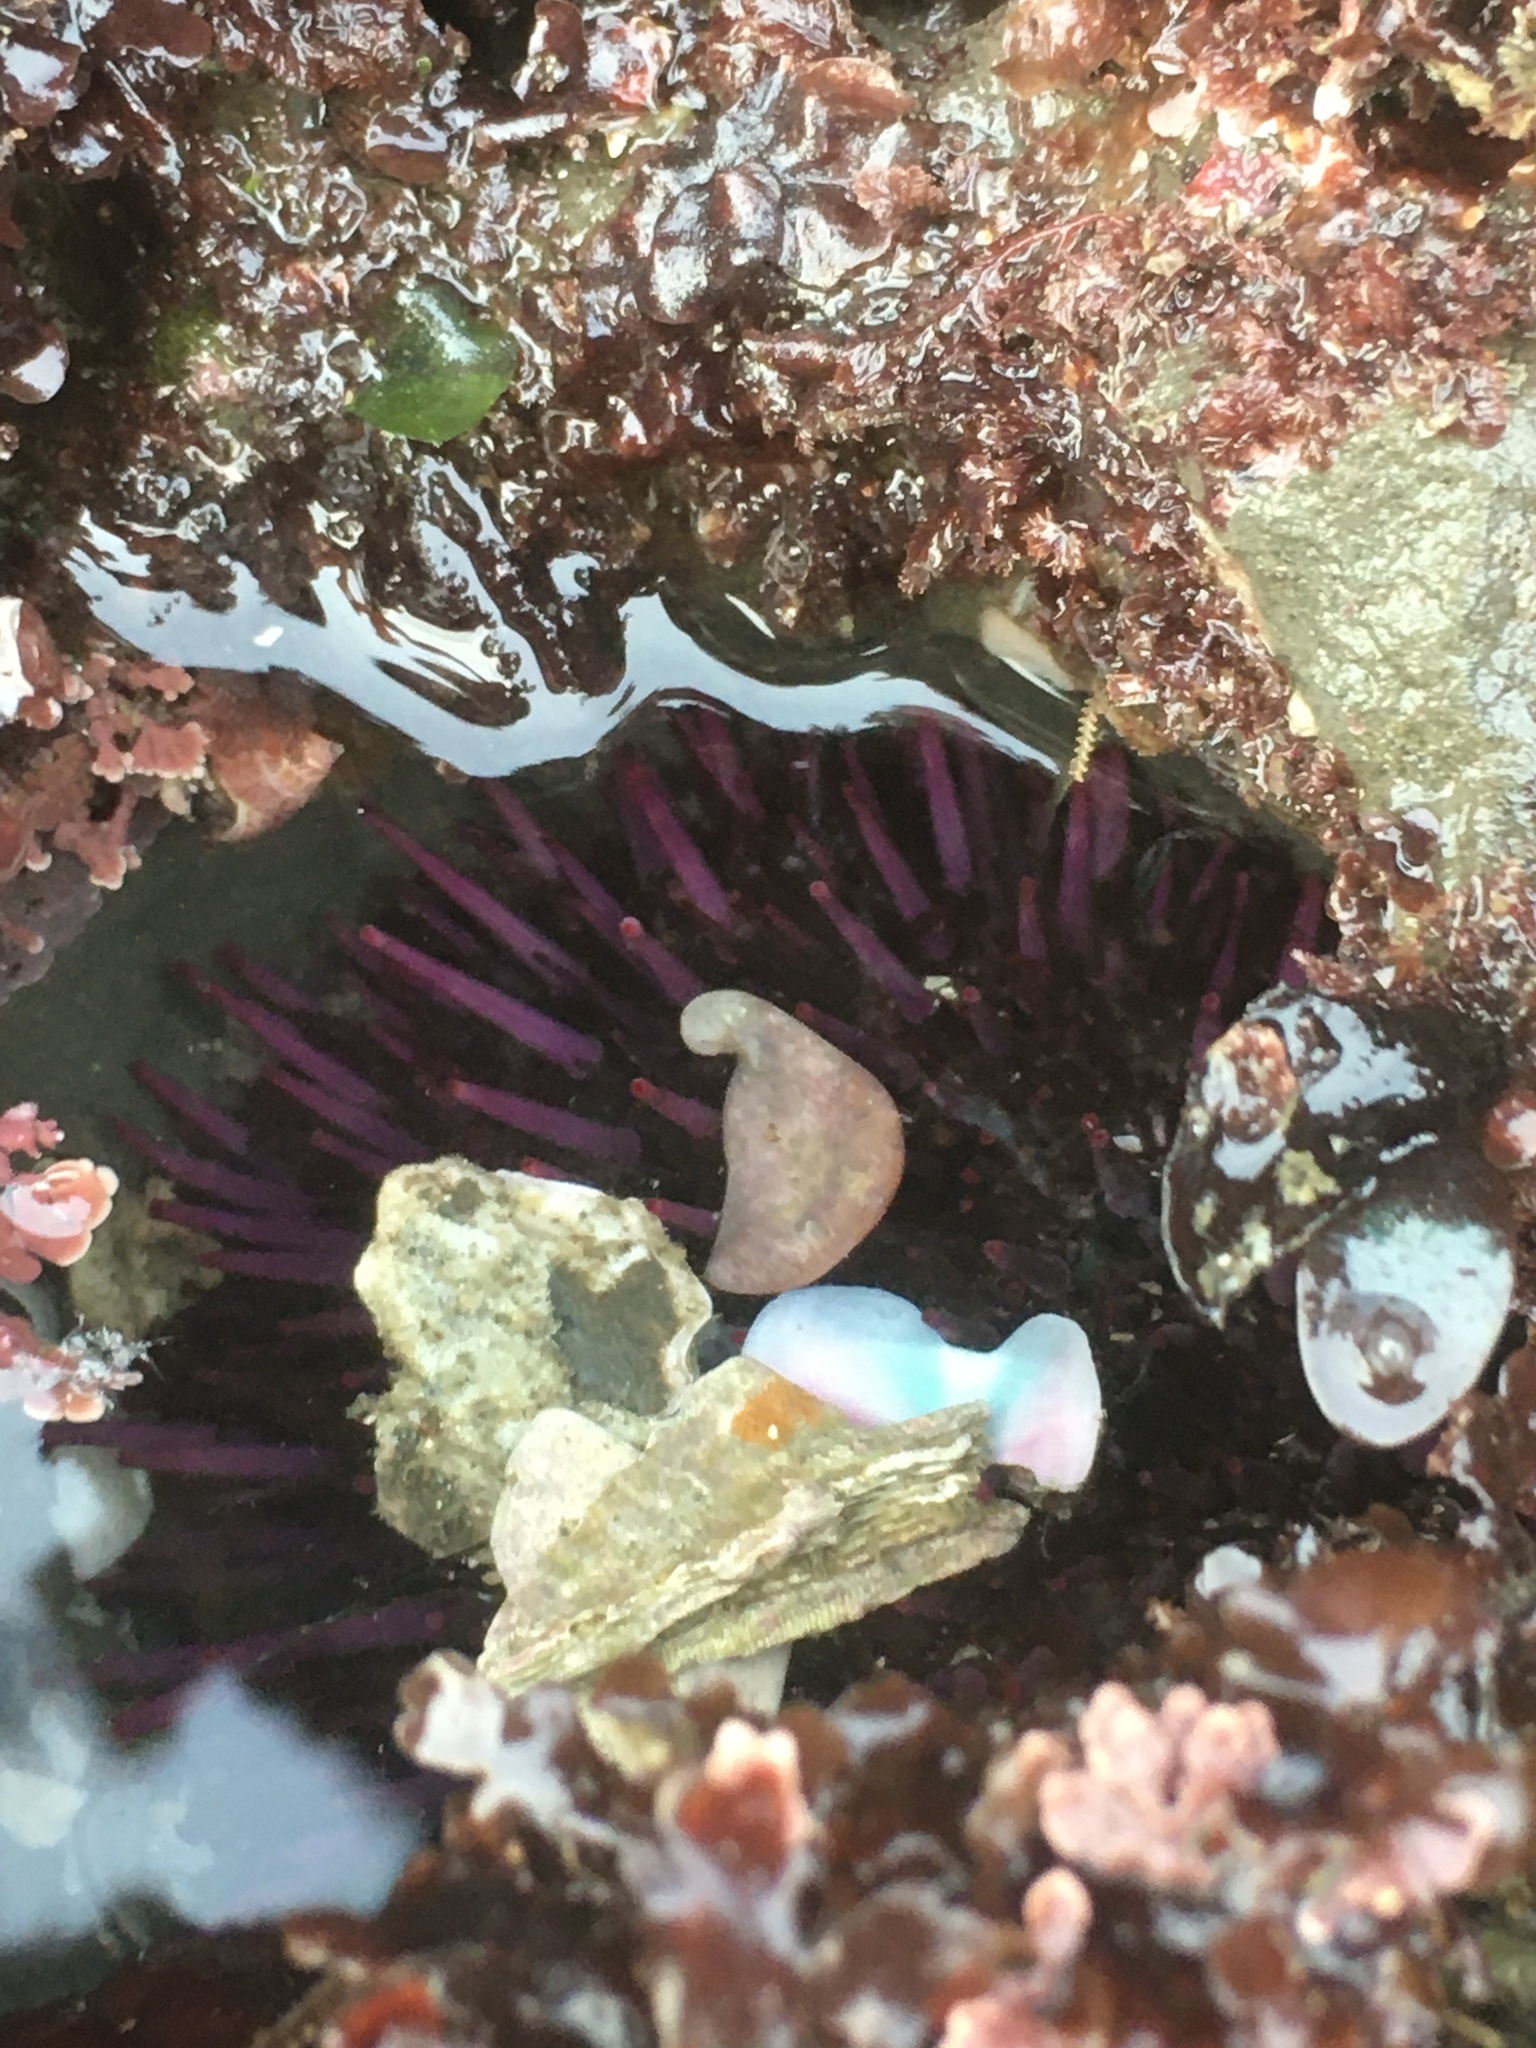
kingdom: Animalia
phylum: Echinodermata
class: Echinoidea
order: Camarodonta
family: Strongylocentrotidae
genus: Strongylocentrotus
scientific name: Strongylocentrotus purpuratus
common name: Purple sea urchin
